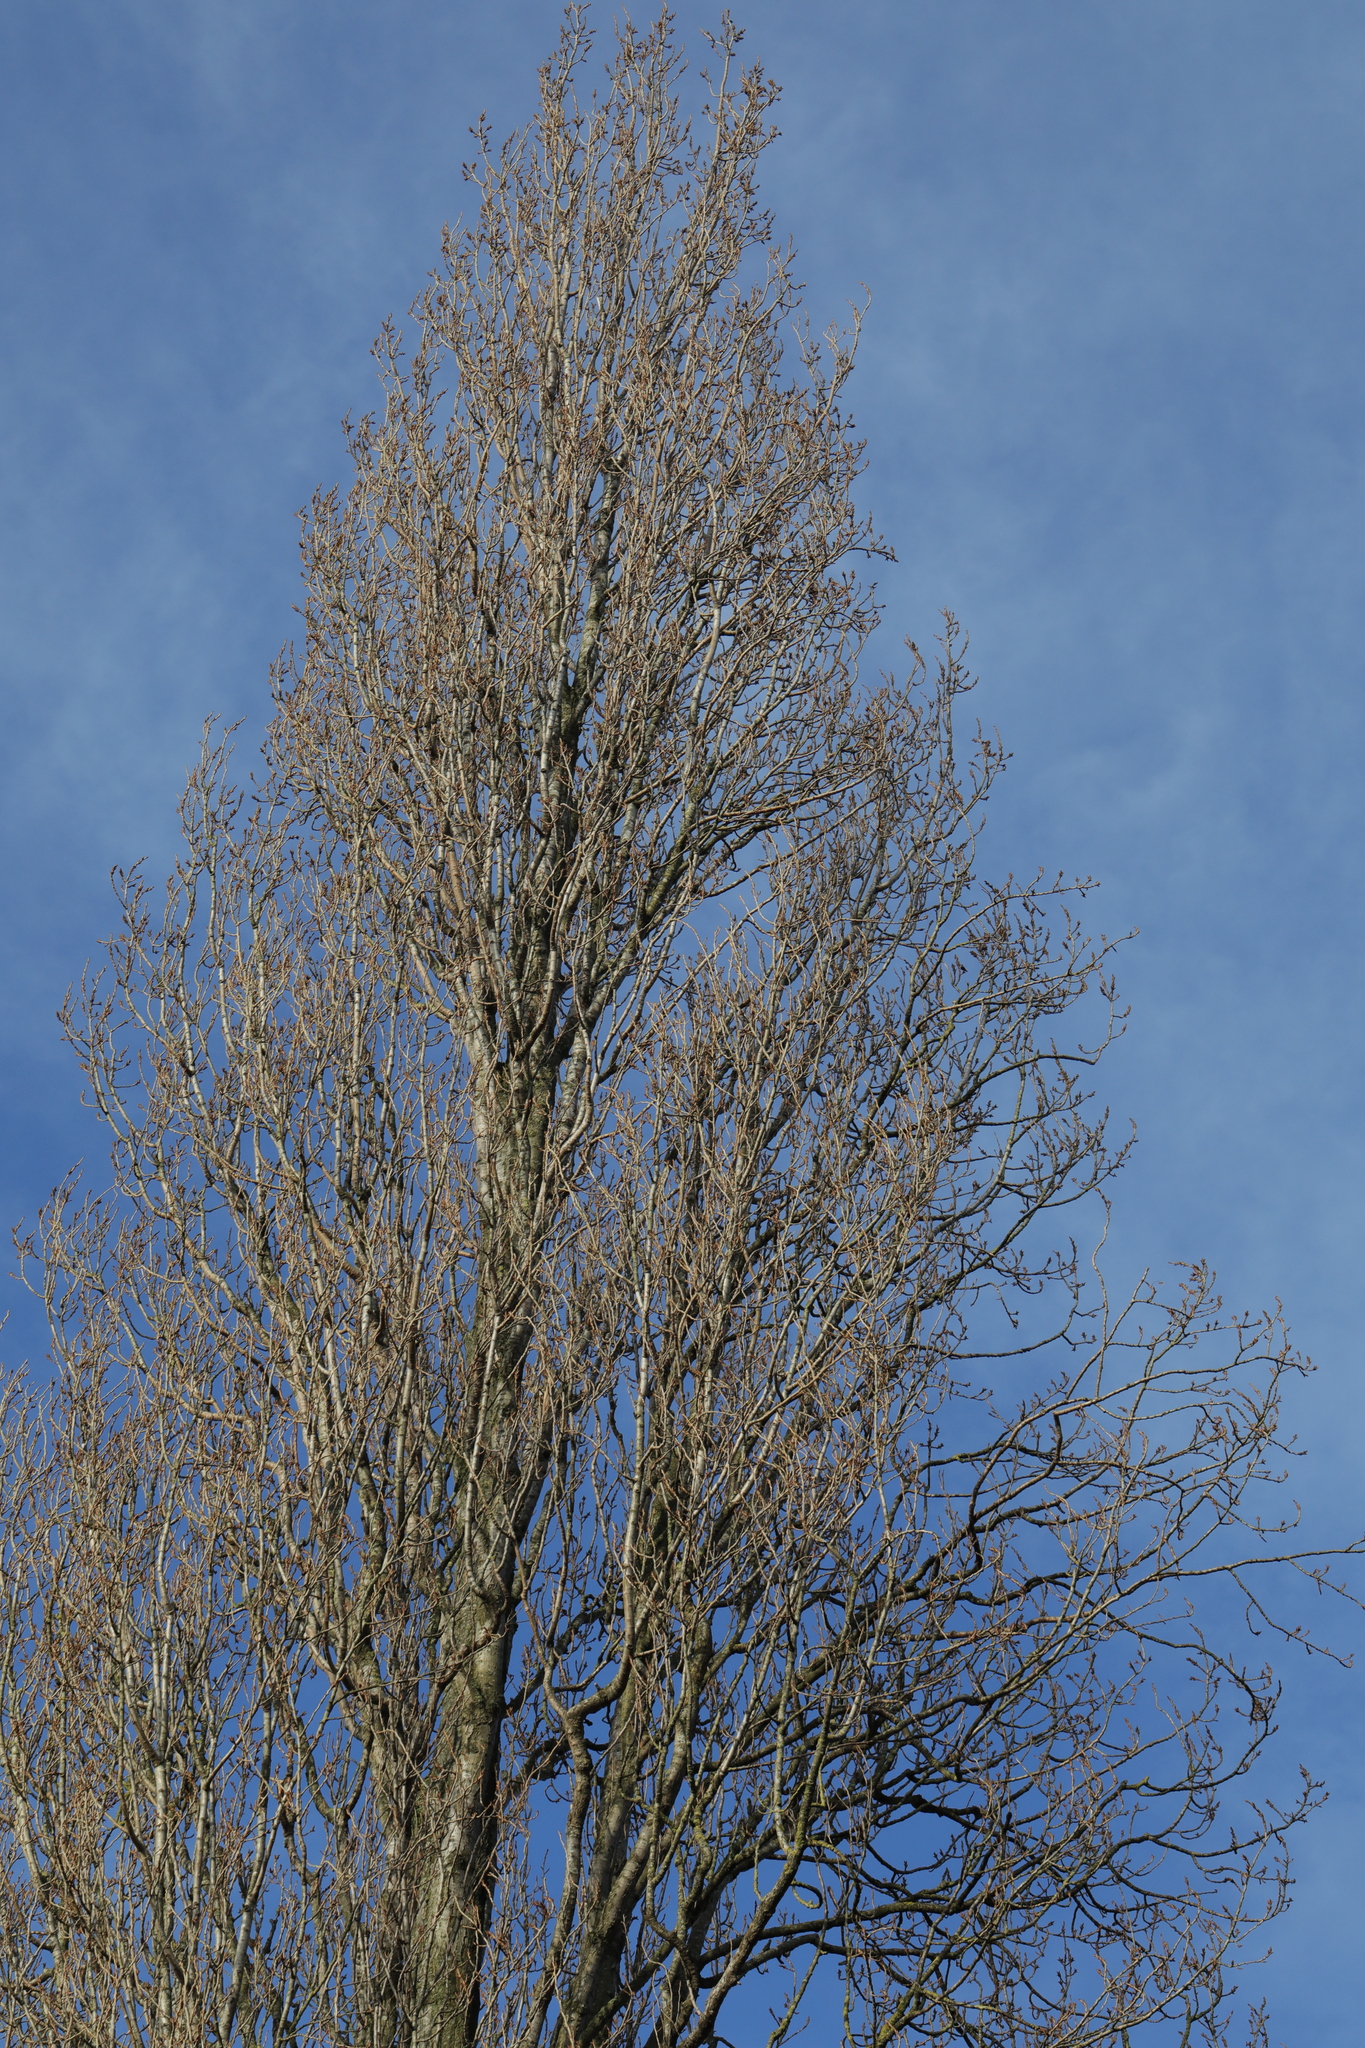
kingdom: Plantae
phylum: Tracheophyta
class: Magnoliopsida
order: Malpighiales
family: Salicaceae
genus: Populus
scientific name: Populus nigra
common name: Black poplar
